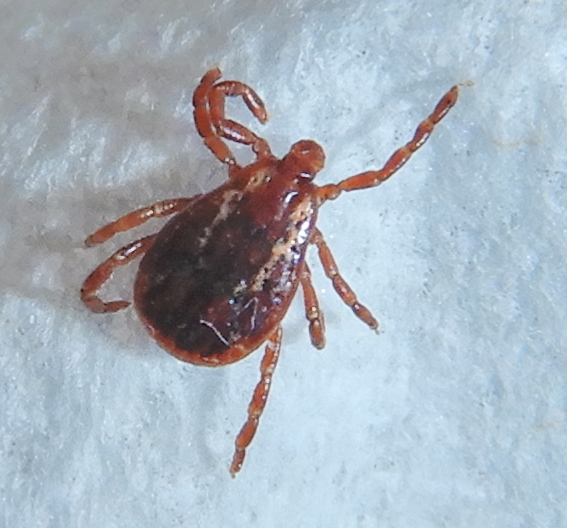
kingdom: Animalia
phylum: Arthropoda
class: Arachnida
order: Ixodida
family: Ixodidae
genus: Dermacentor
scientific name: Dermacentor variabilis
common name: American dog tick
